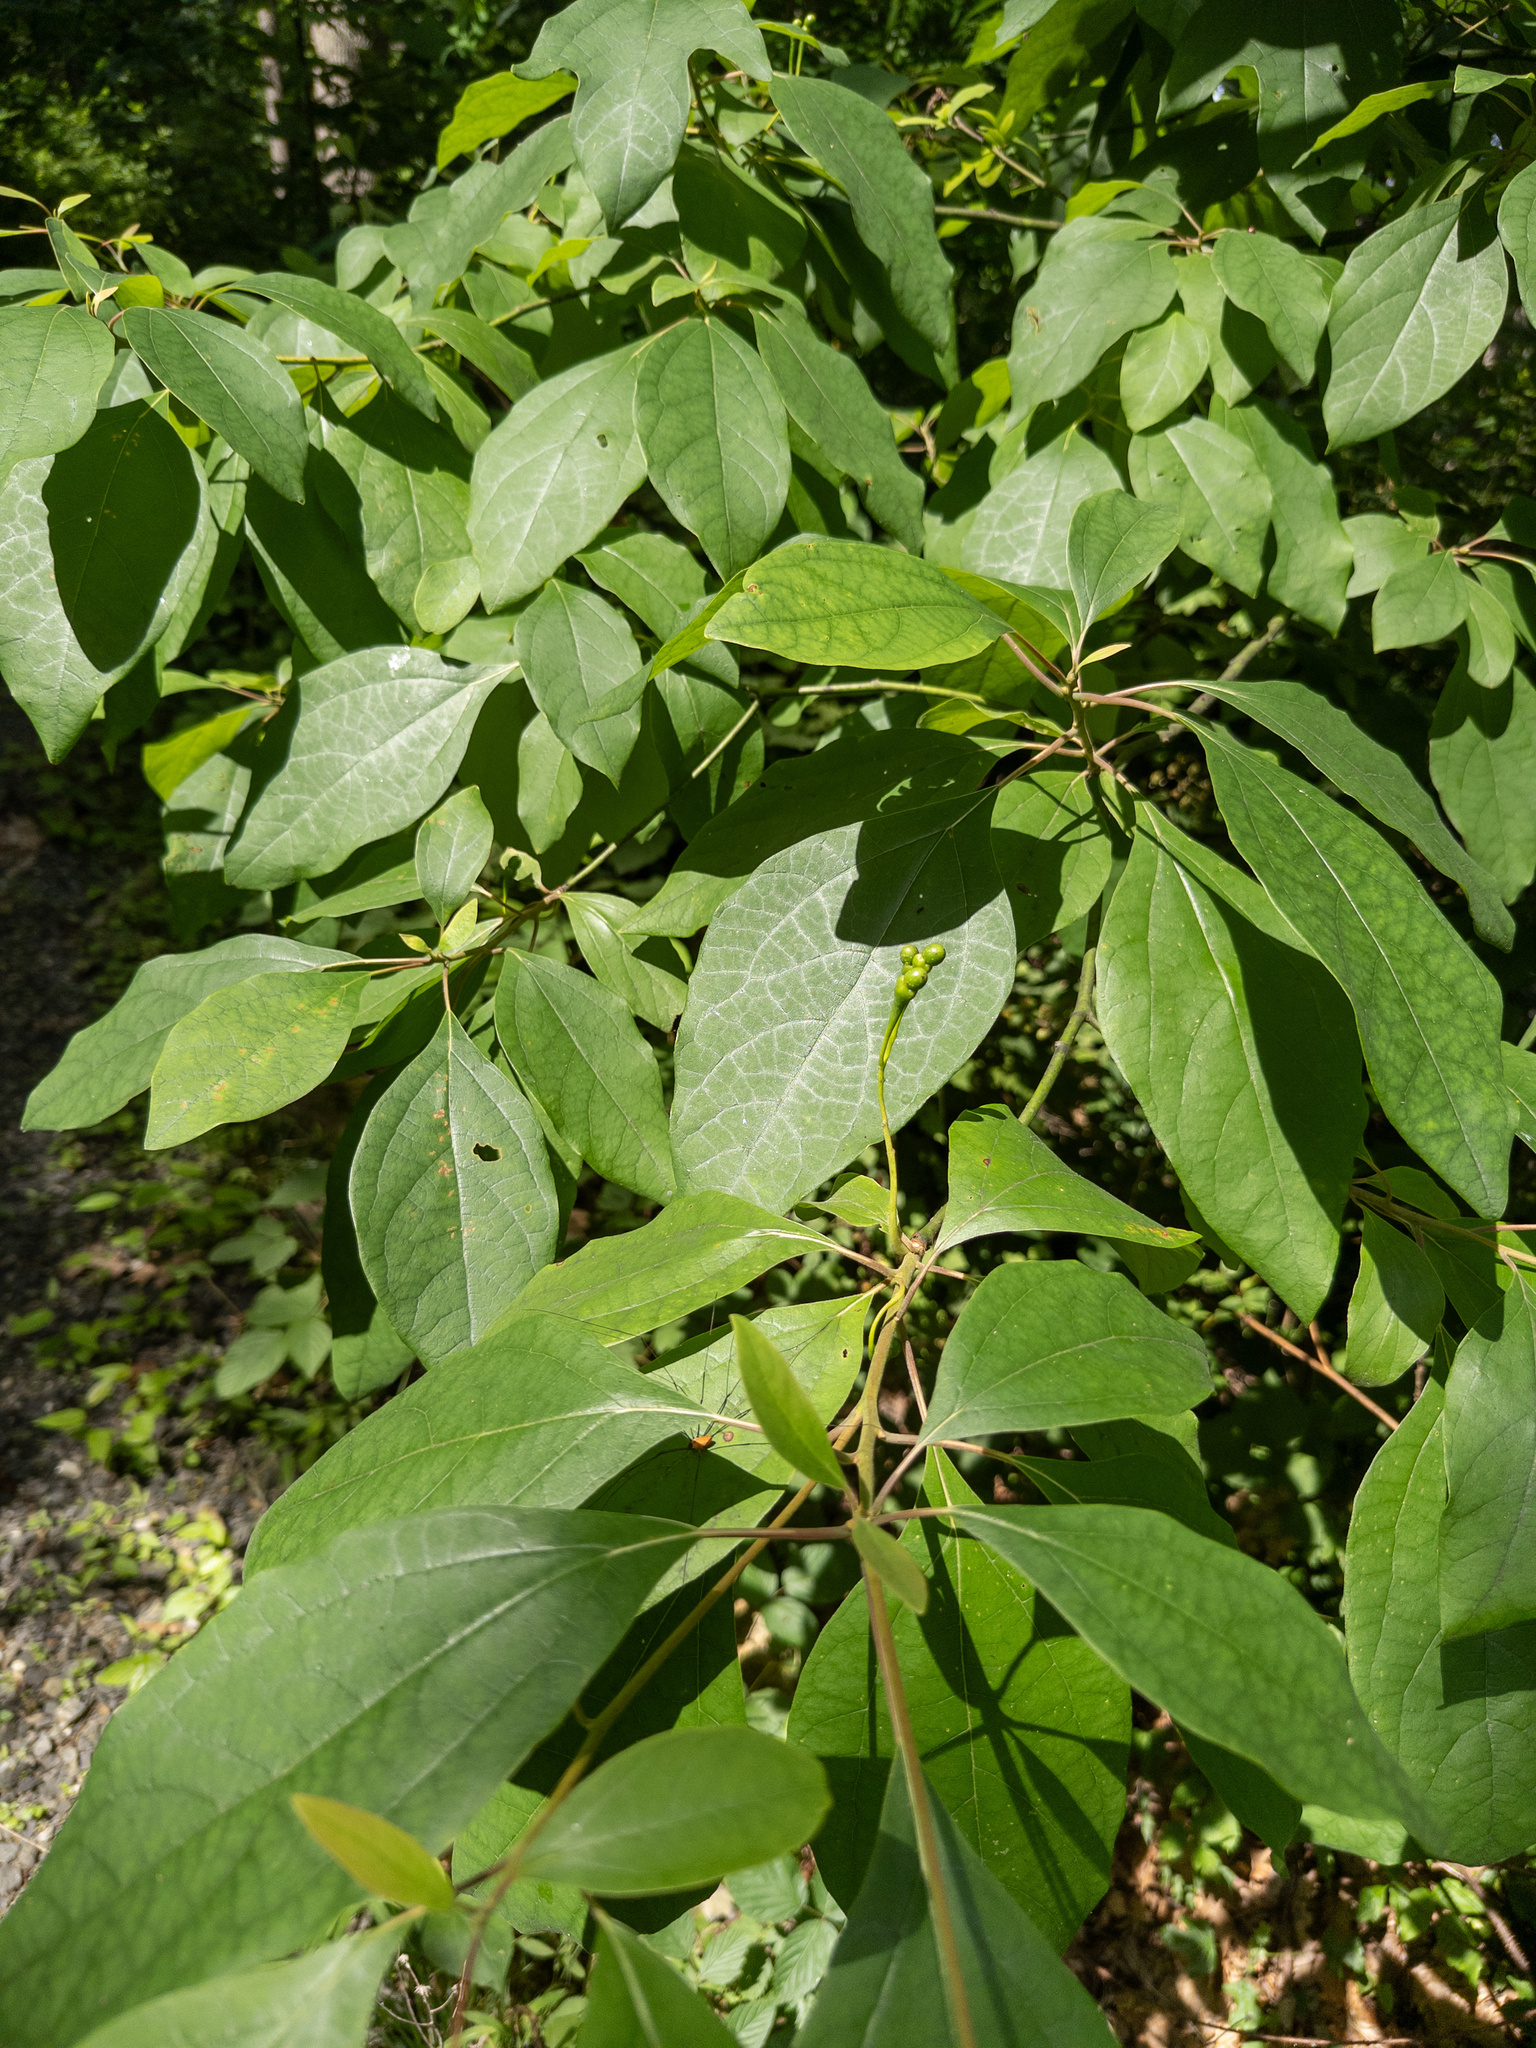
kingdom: Plantae
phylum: Tracheophyta
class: Magnoliopsida
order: Laurales
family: Lauraceae
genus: Sassafras
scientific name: Sassafras albidum
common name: Sassafras
